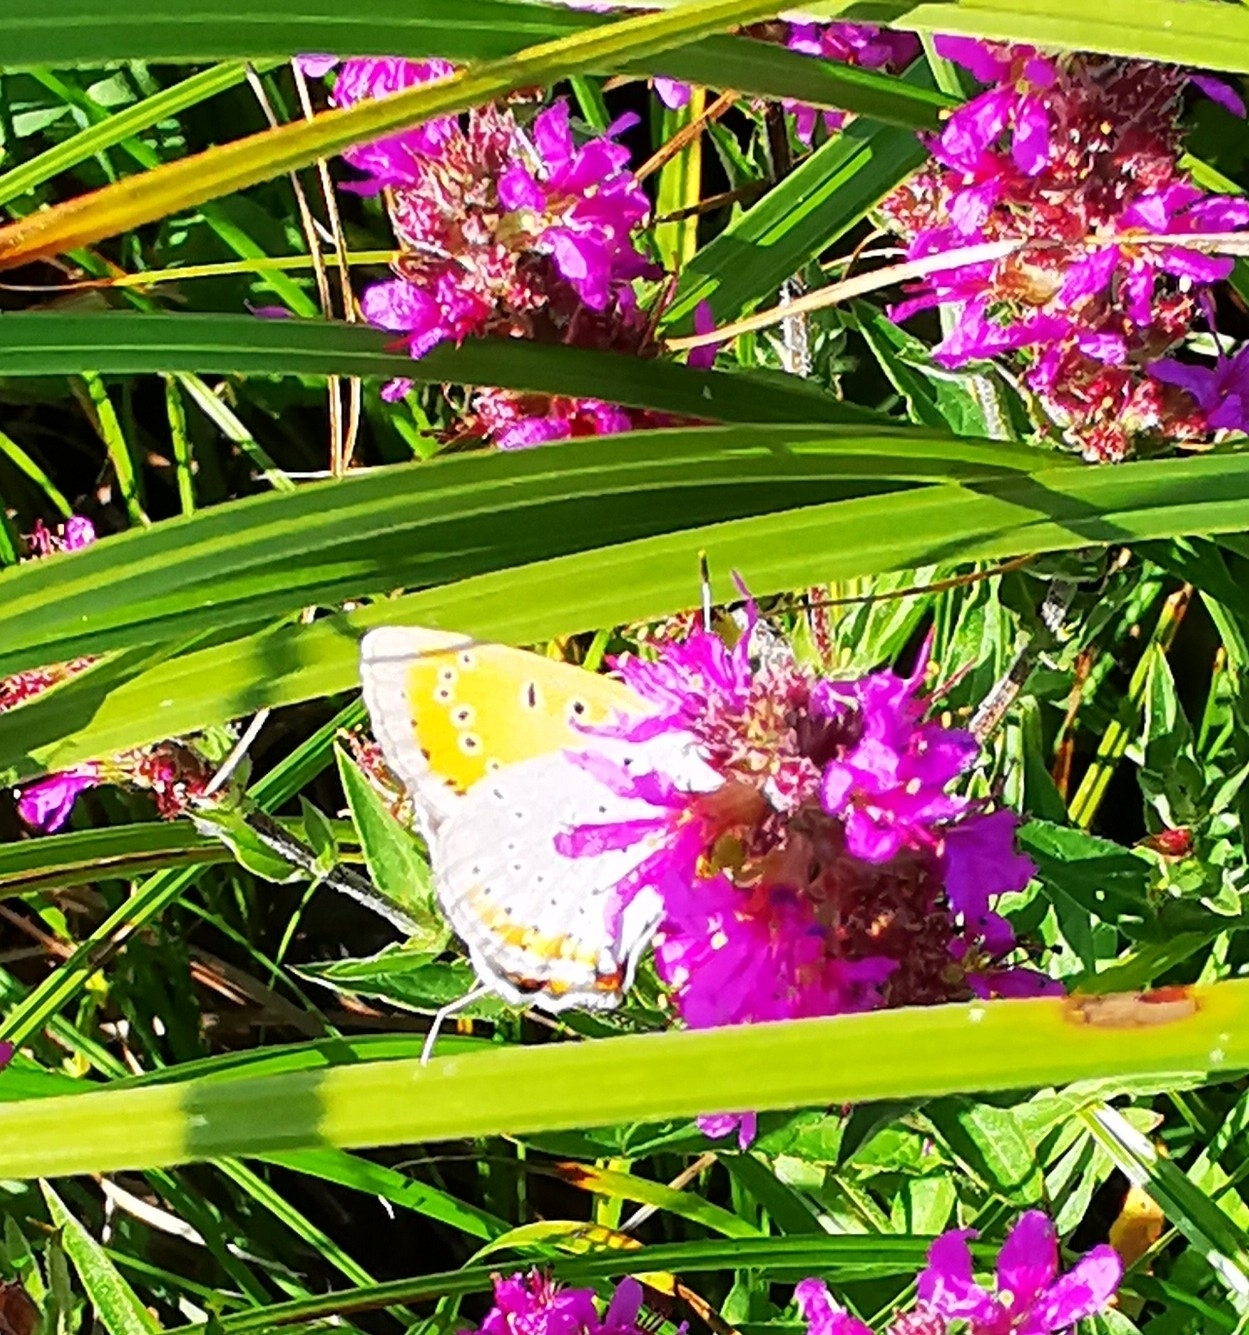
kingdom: Animalia
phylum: Arthropoda
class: Insecta
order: Lepidoptera
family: Lycaenidae
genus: Lycaena
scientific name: Lycaena dispar
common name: Large copper
